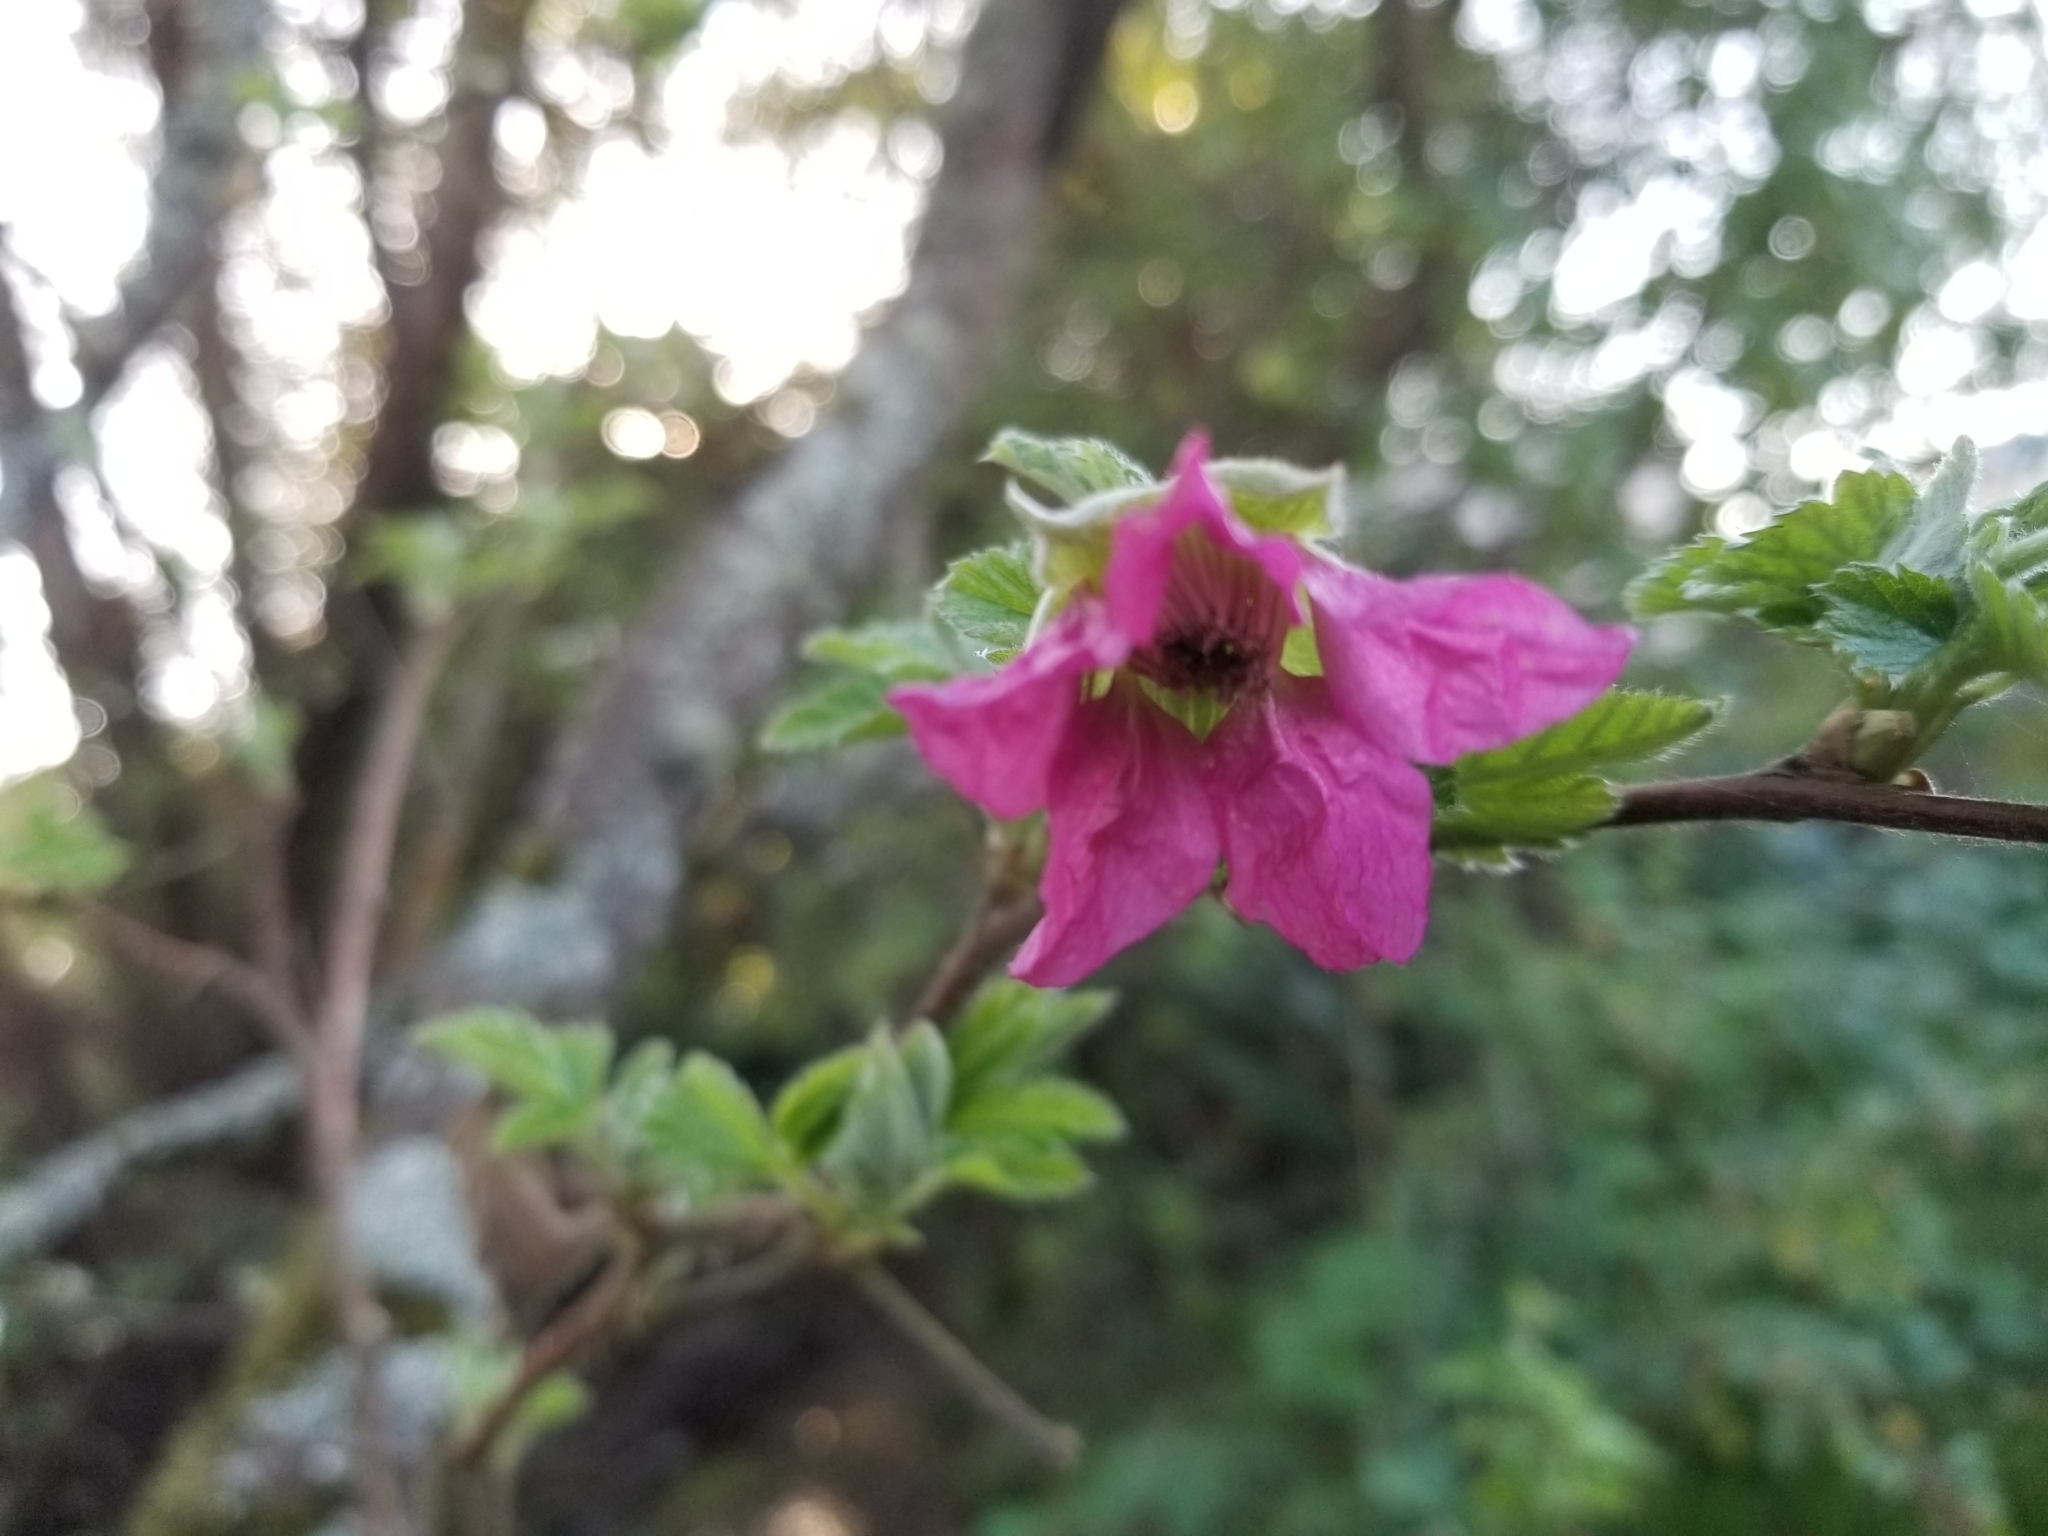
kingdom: Plantae
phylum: Tracheophyta
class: Magnoliopsida
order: Rosales
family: Rosaceae
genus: Rubus
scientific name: Rubus spectabilis
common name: Salmonberry
